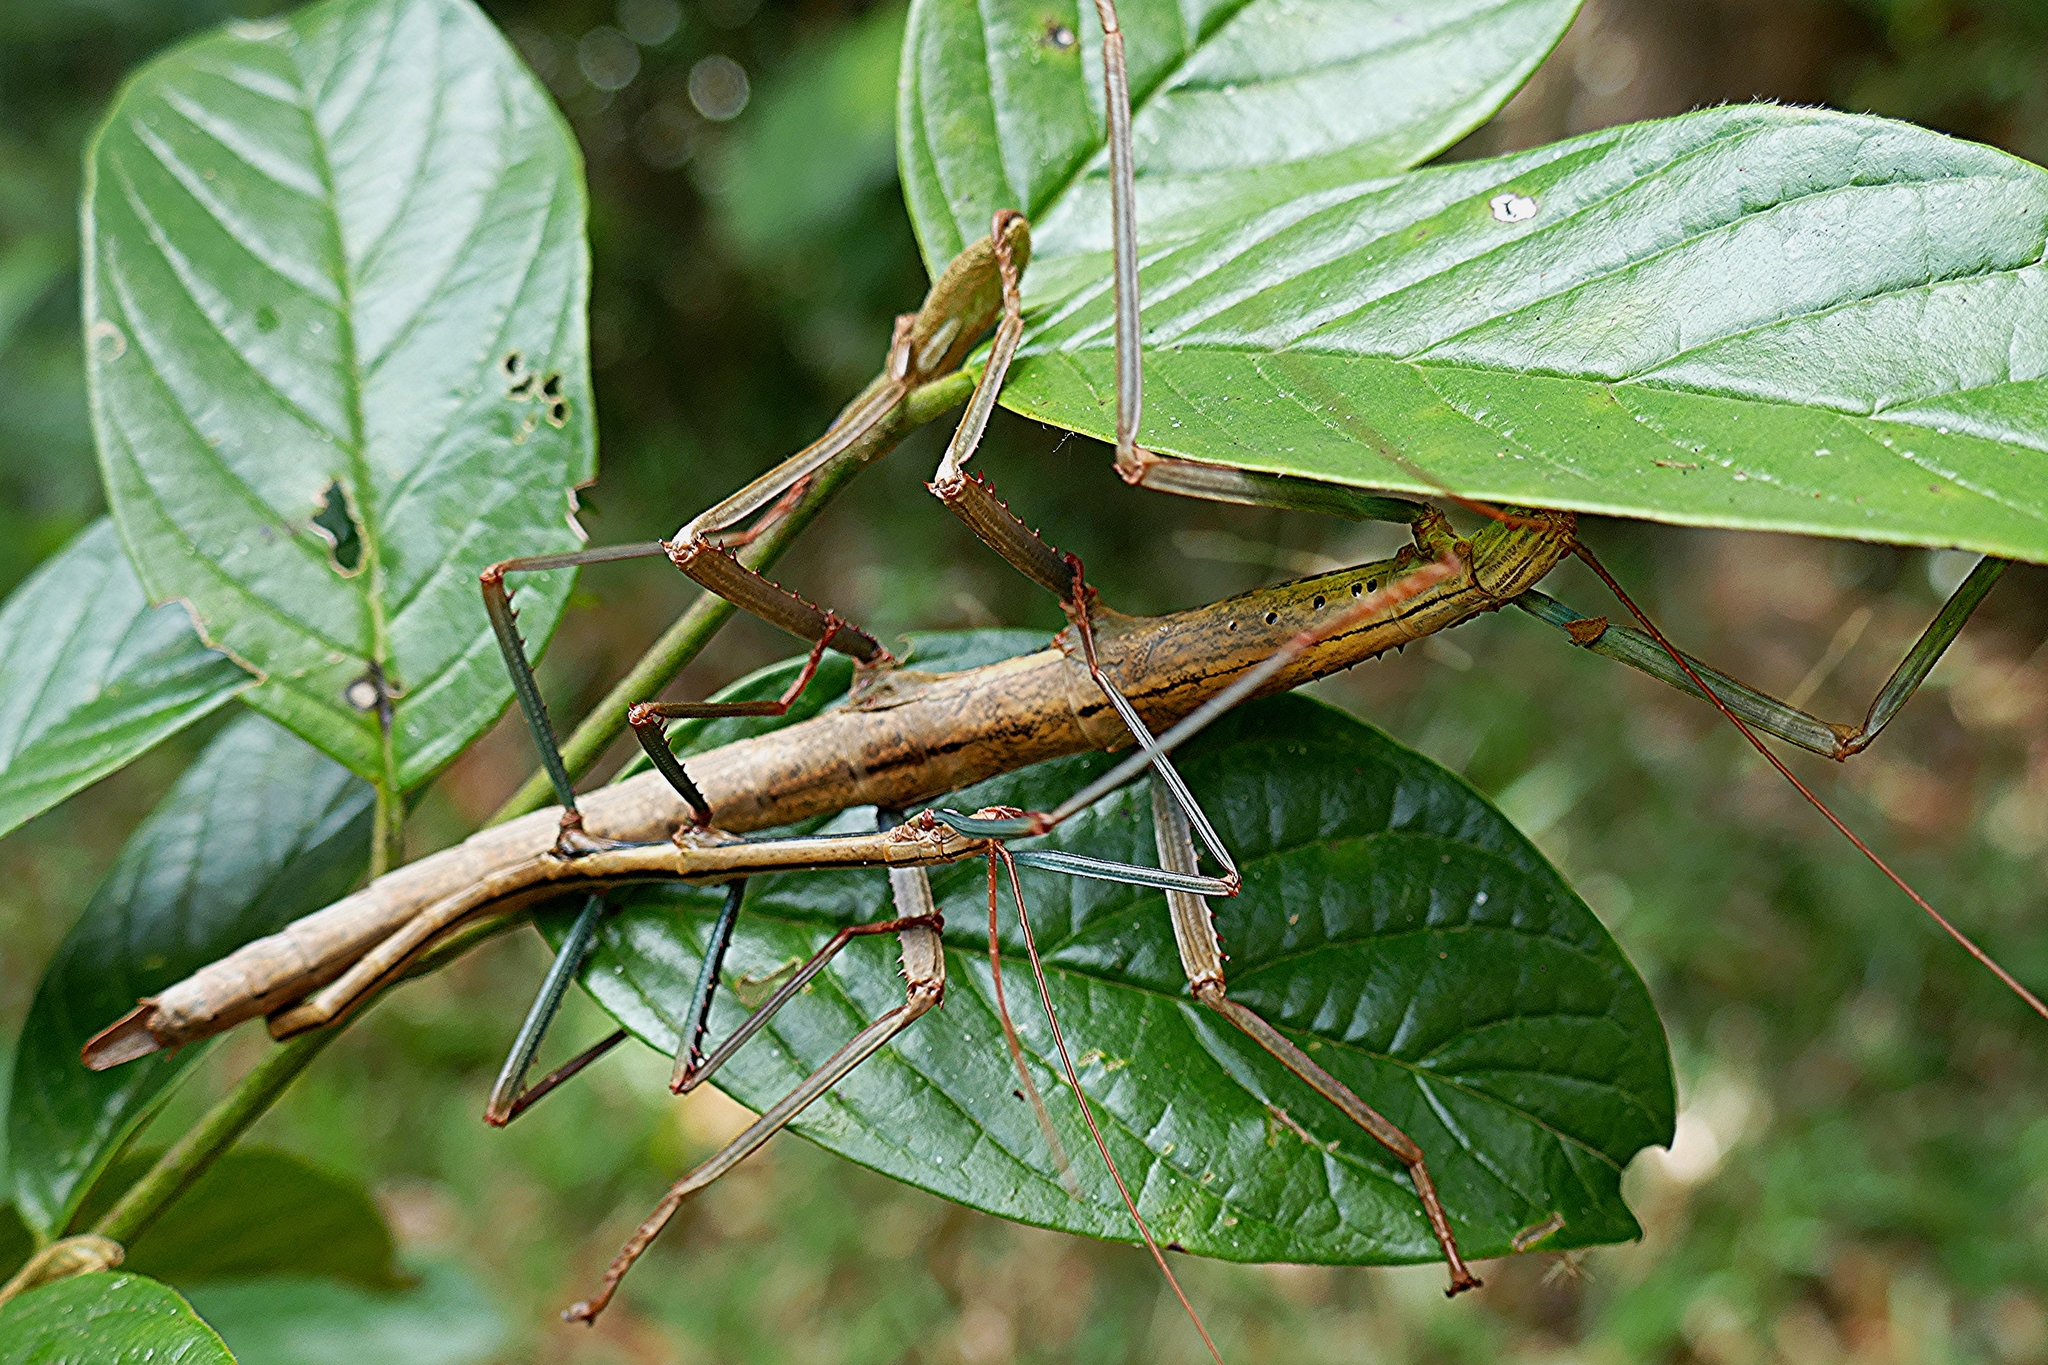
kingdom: Animalia
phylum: Arthropoda
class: Insecta
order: Phasmida
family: Anisacanthidae
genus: Leiophasma
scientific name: Leiophasma nigrotuberculatum
